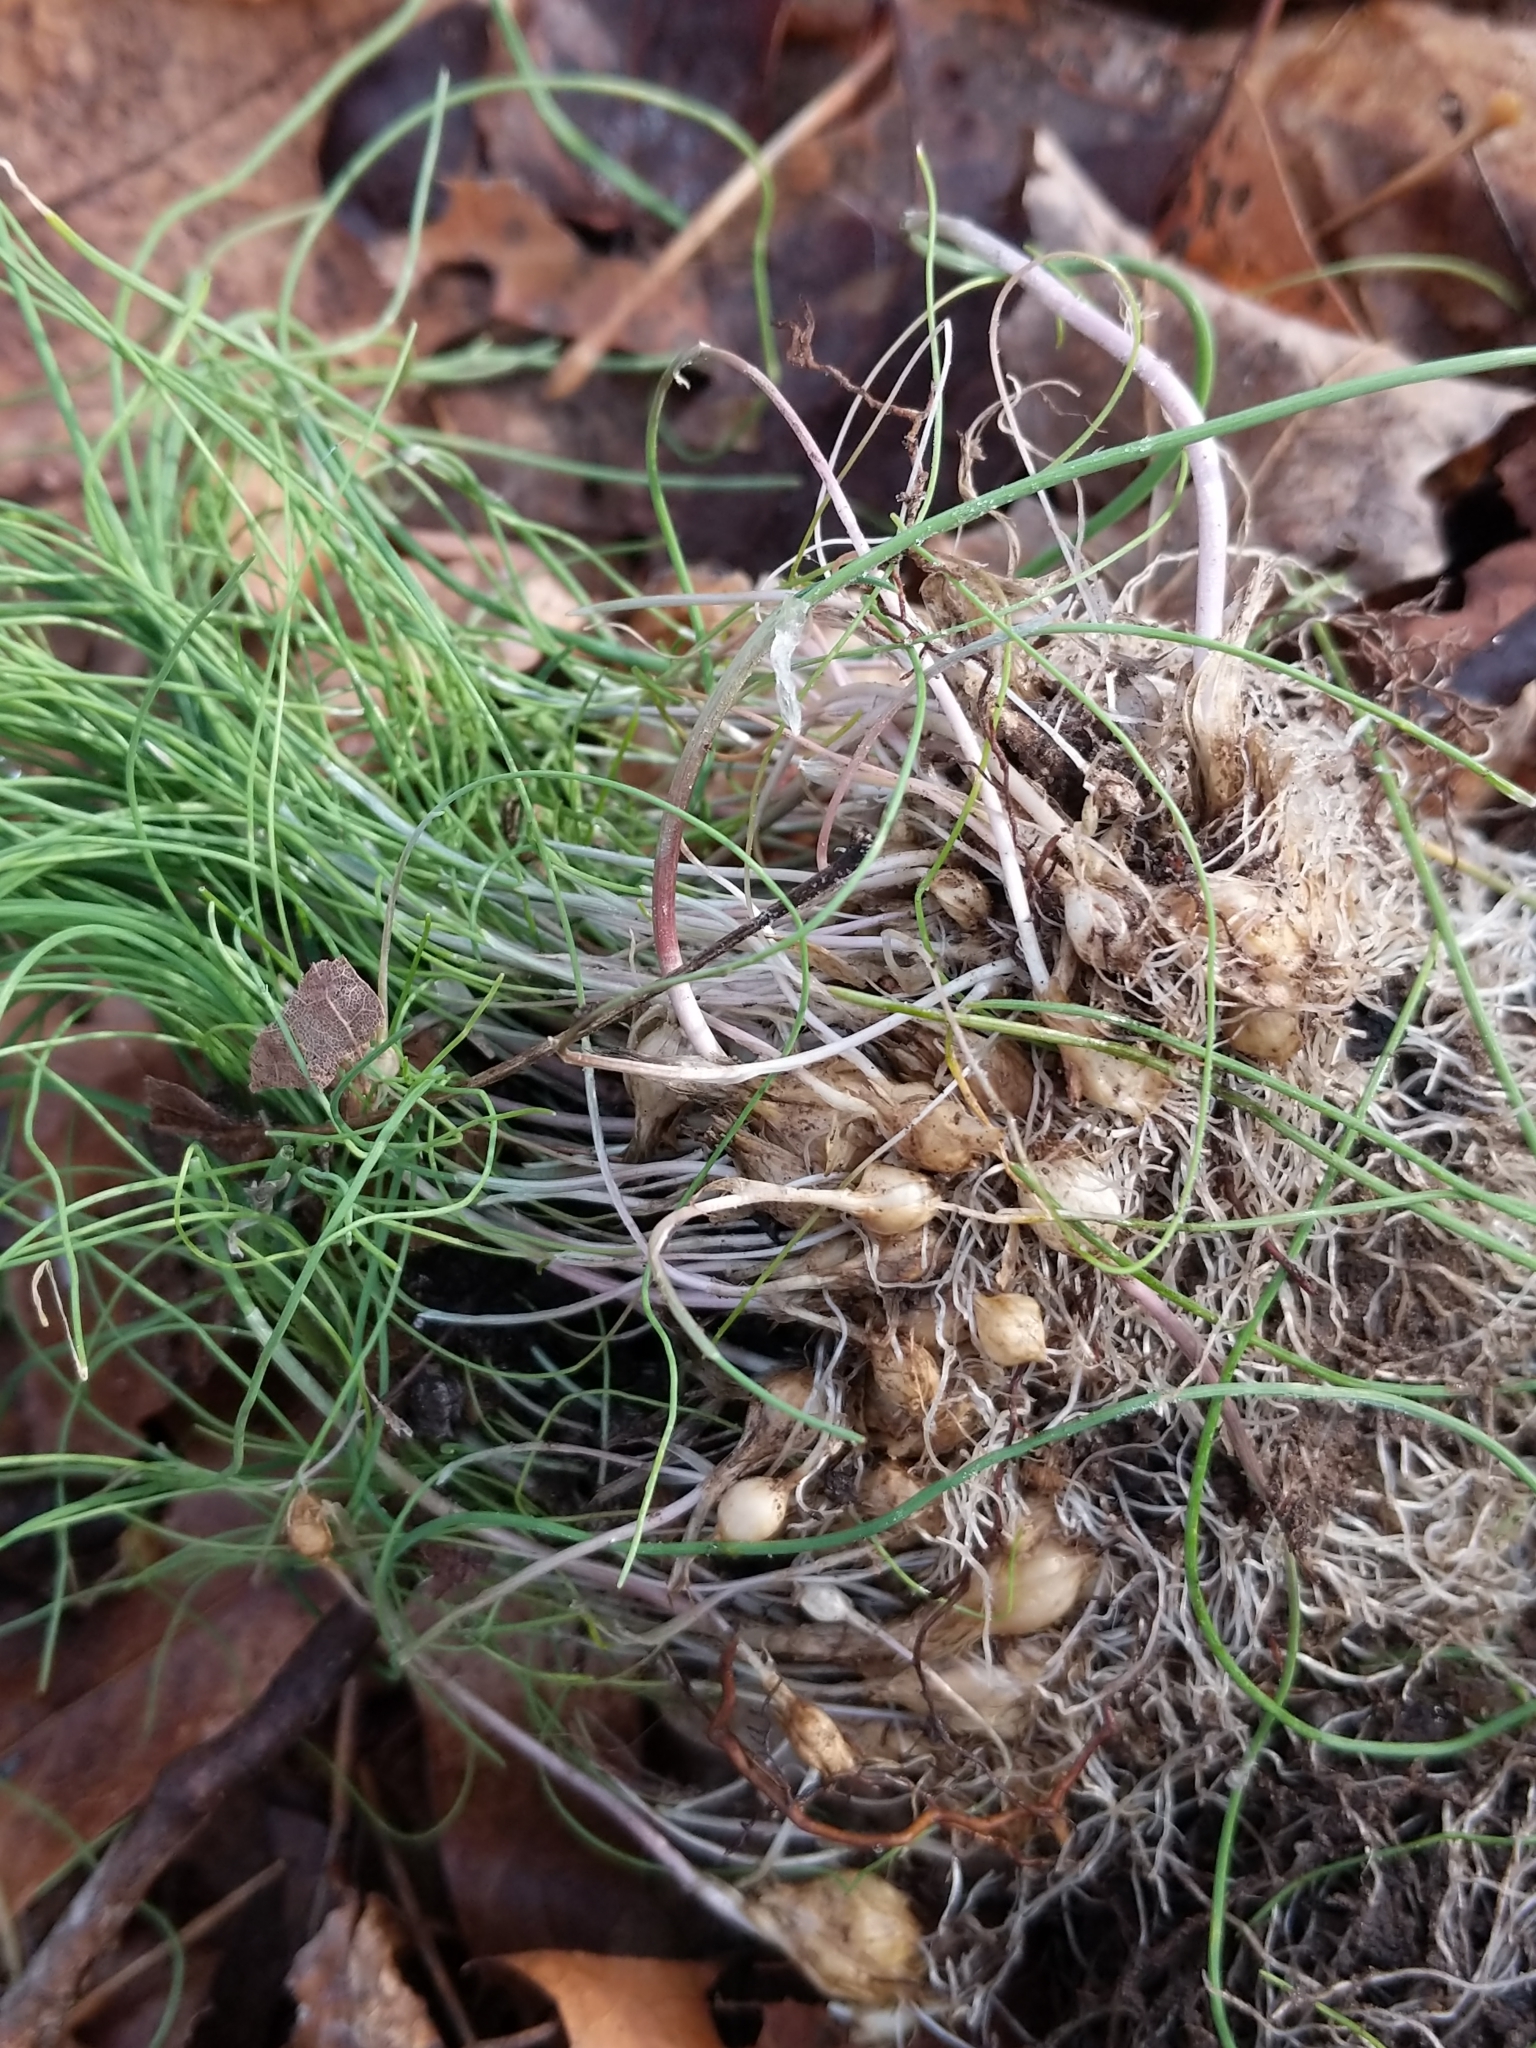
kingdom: Plantae
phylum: Tracheophyta
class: Liliopsida
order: Asparagales
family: Amaryllidaceae
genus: Allium
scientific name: Allium vineale
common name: Crow garlic
